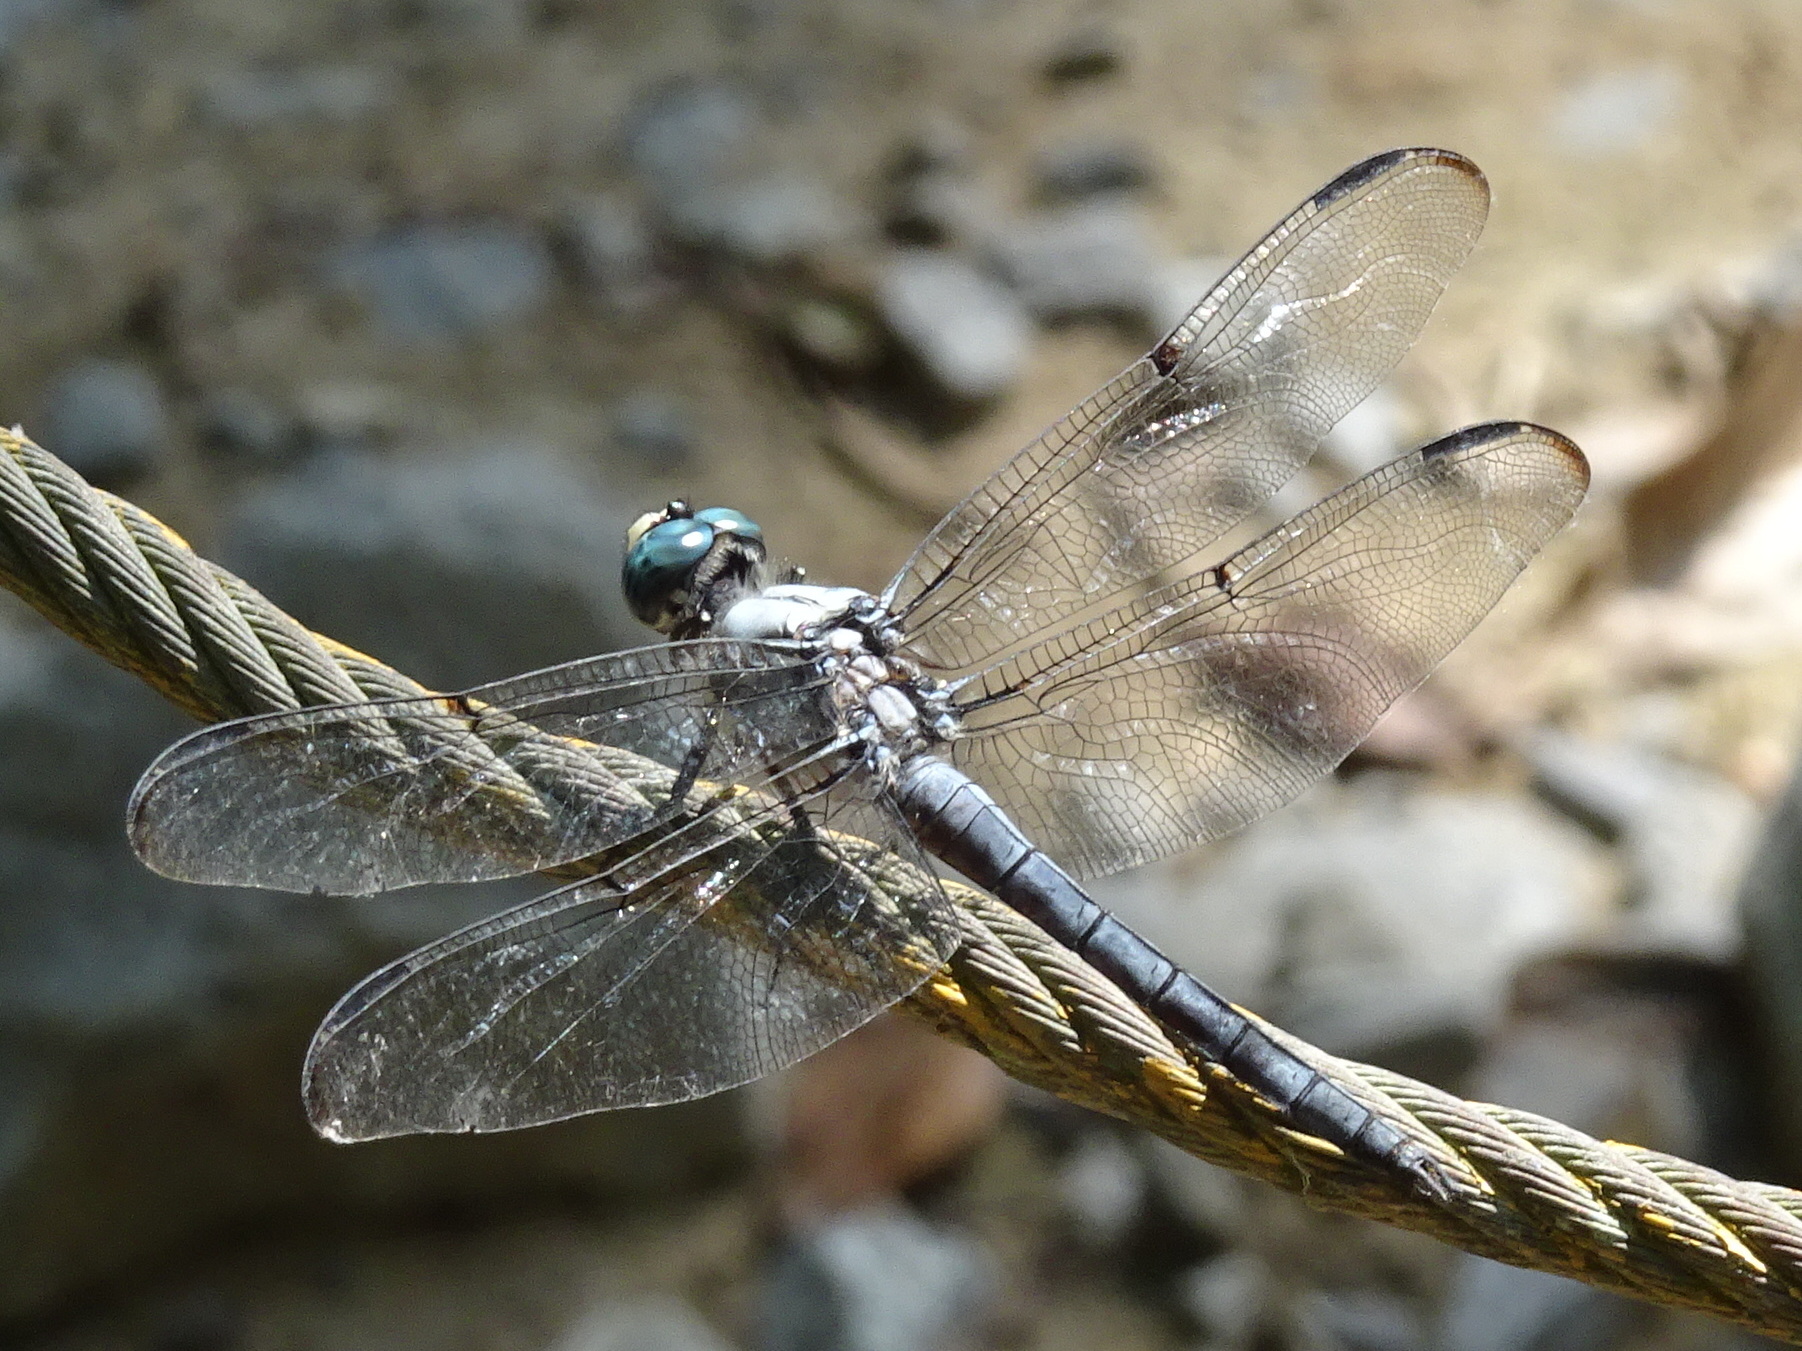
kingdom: Animalia
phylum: Arthropoda
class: Insecta
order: Odonata
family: Libellulidae
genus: Libellula
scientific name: Libellula vibrans
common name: Great blue skimmer
